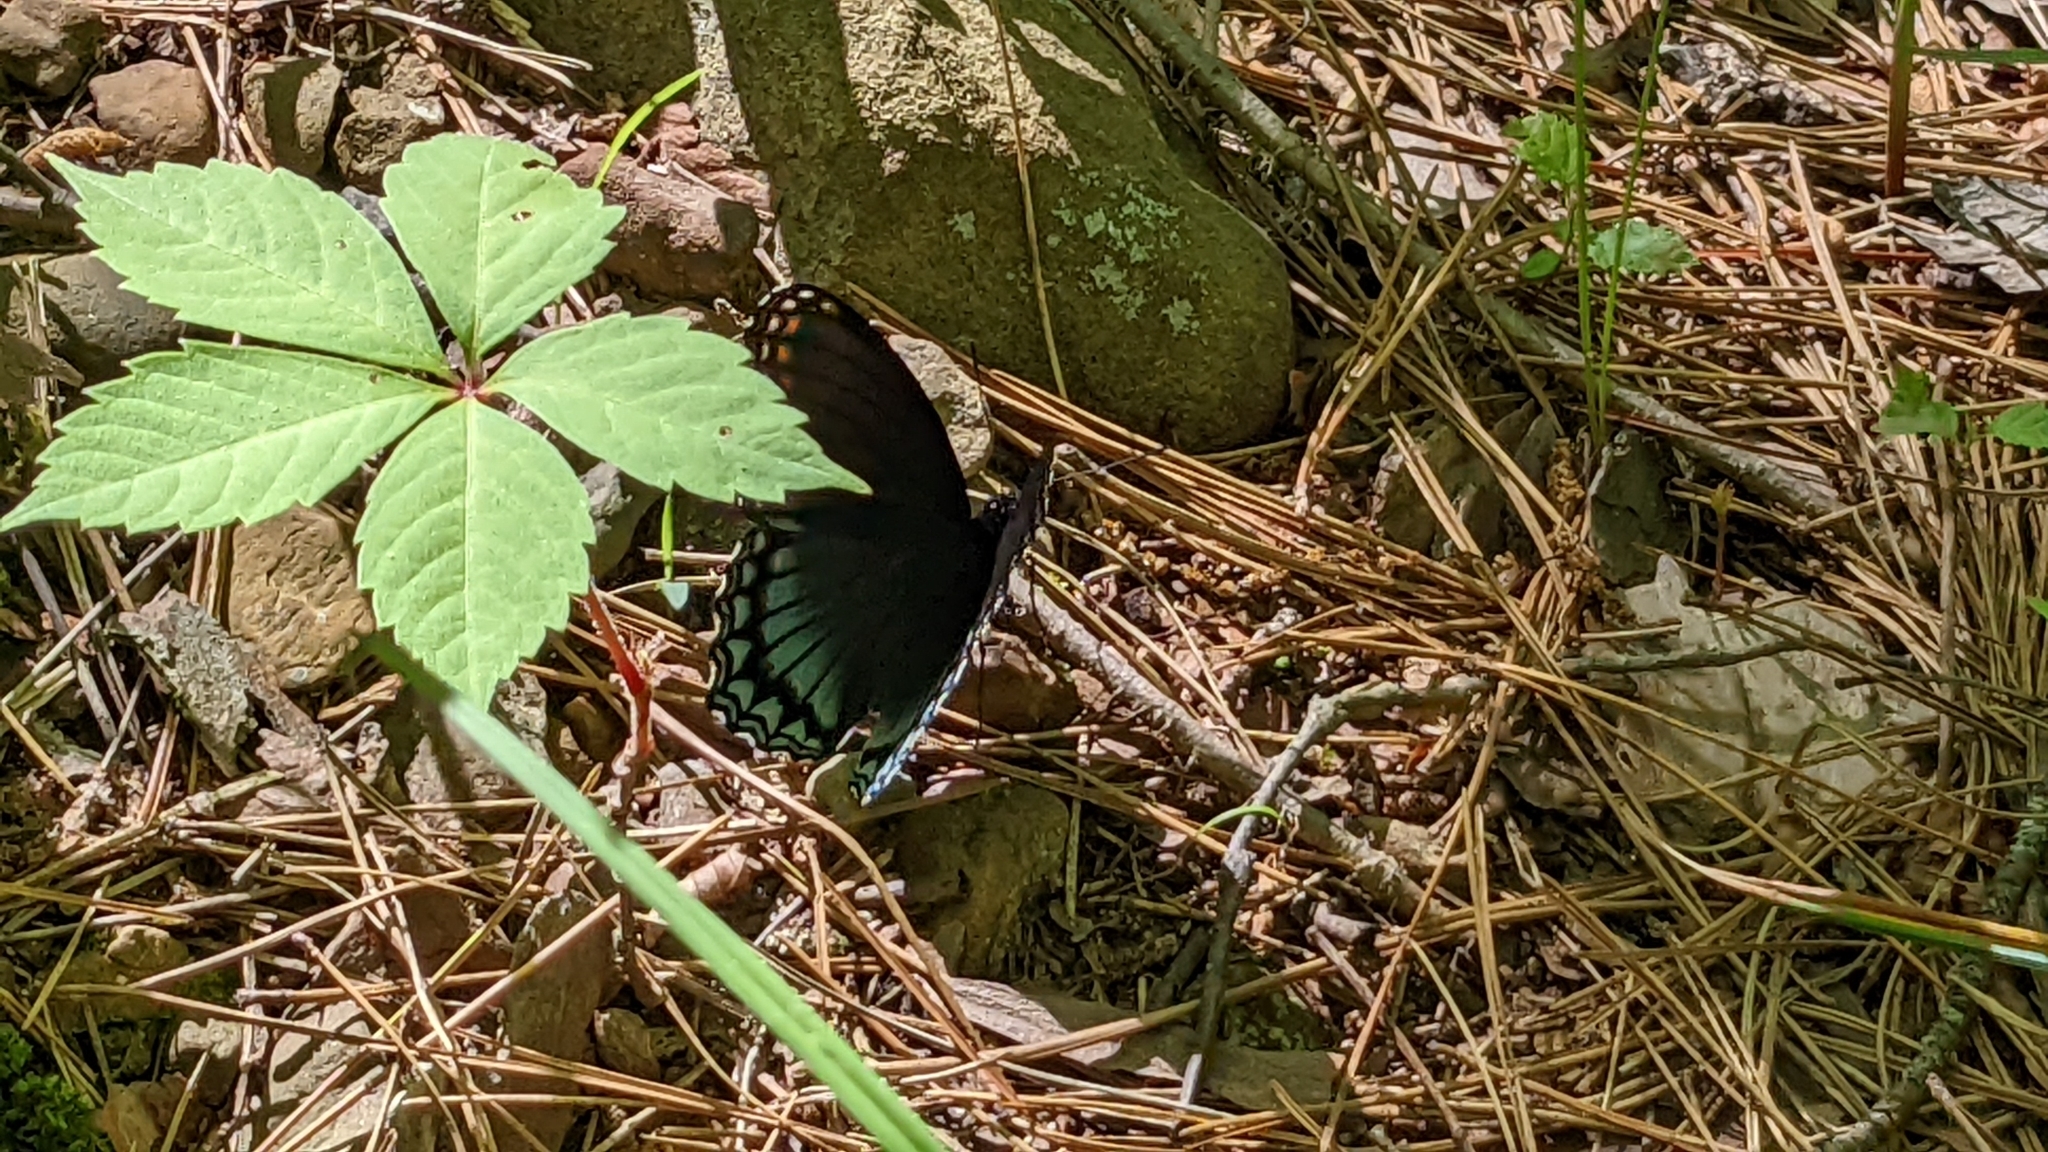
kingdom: Animalia
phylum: Arthropoda
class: Insecta
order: Lepidoptera
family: Nymphalidae
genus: Limenitis
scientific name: Limenitis arthemis
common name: Red-spotted admiral
